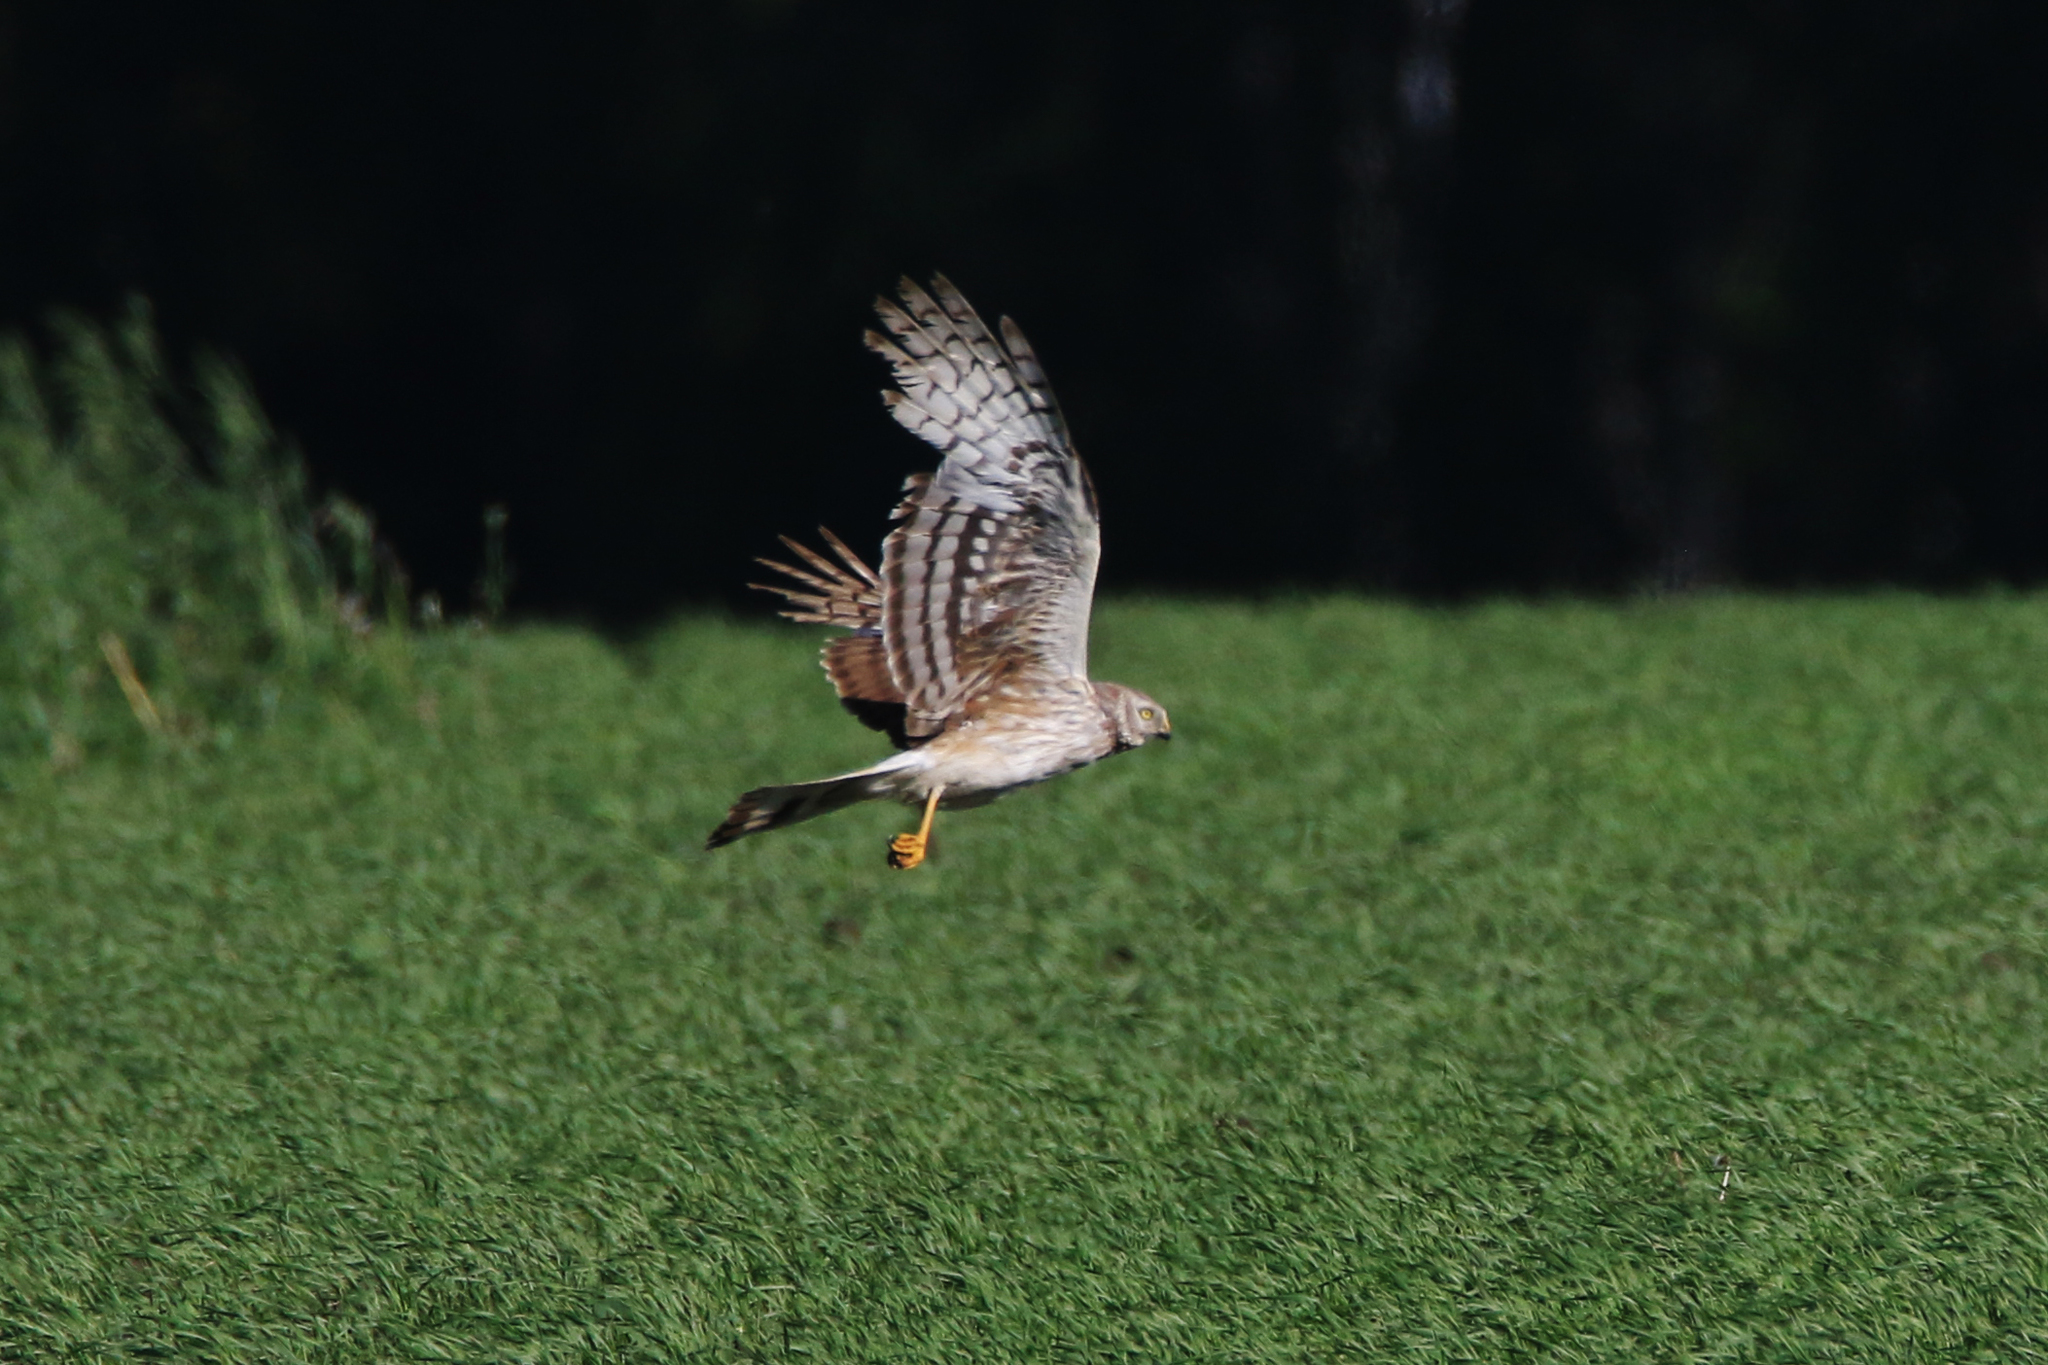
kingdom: Animalia
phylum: Chordata
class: Aves
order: Accipitriformes
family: Accipitridae
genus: Circus
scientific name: Circus cyaneus
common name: Hen harrier
